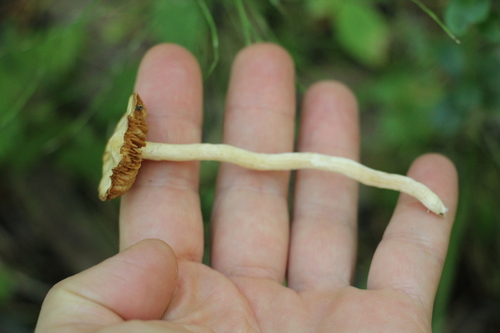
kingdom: Fungi
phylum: Basidiomycota
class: Agaricomycetes
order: Agaricales
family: Cortinariaceae
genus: Cortinarius
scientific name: Cortinarius obtusus
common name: Blunt webcap
